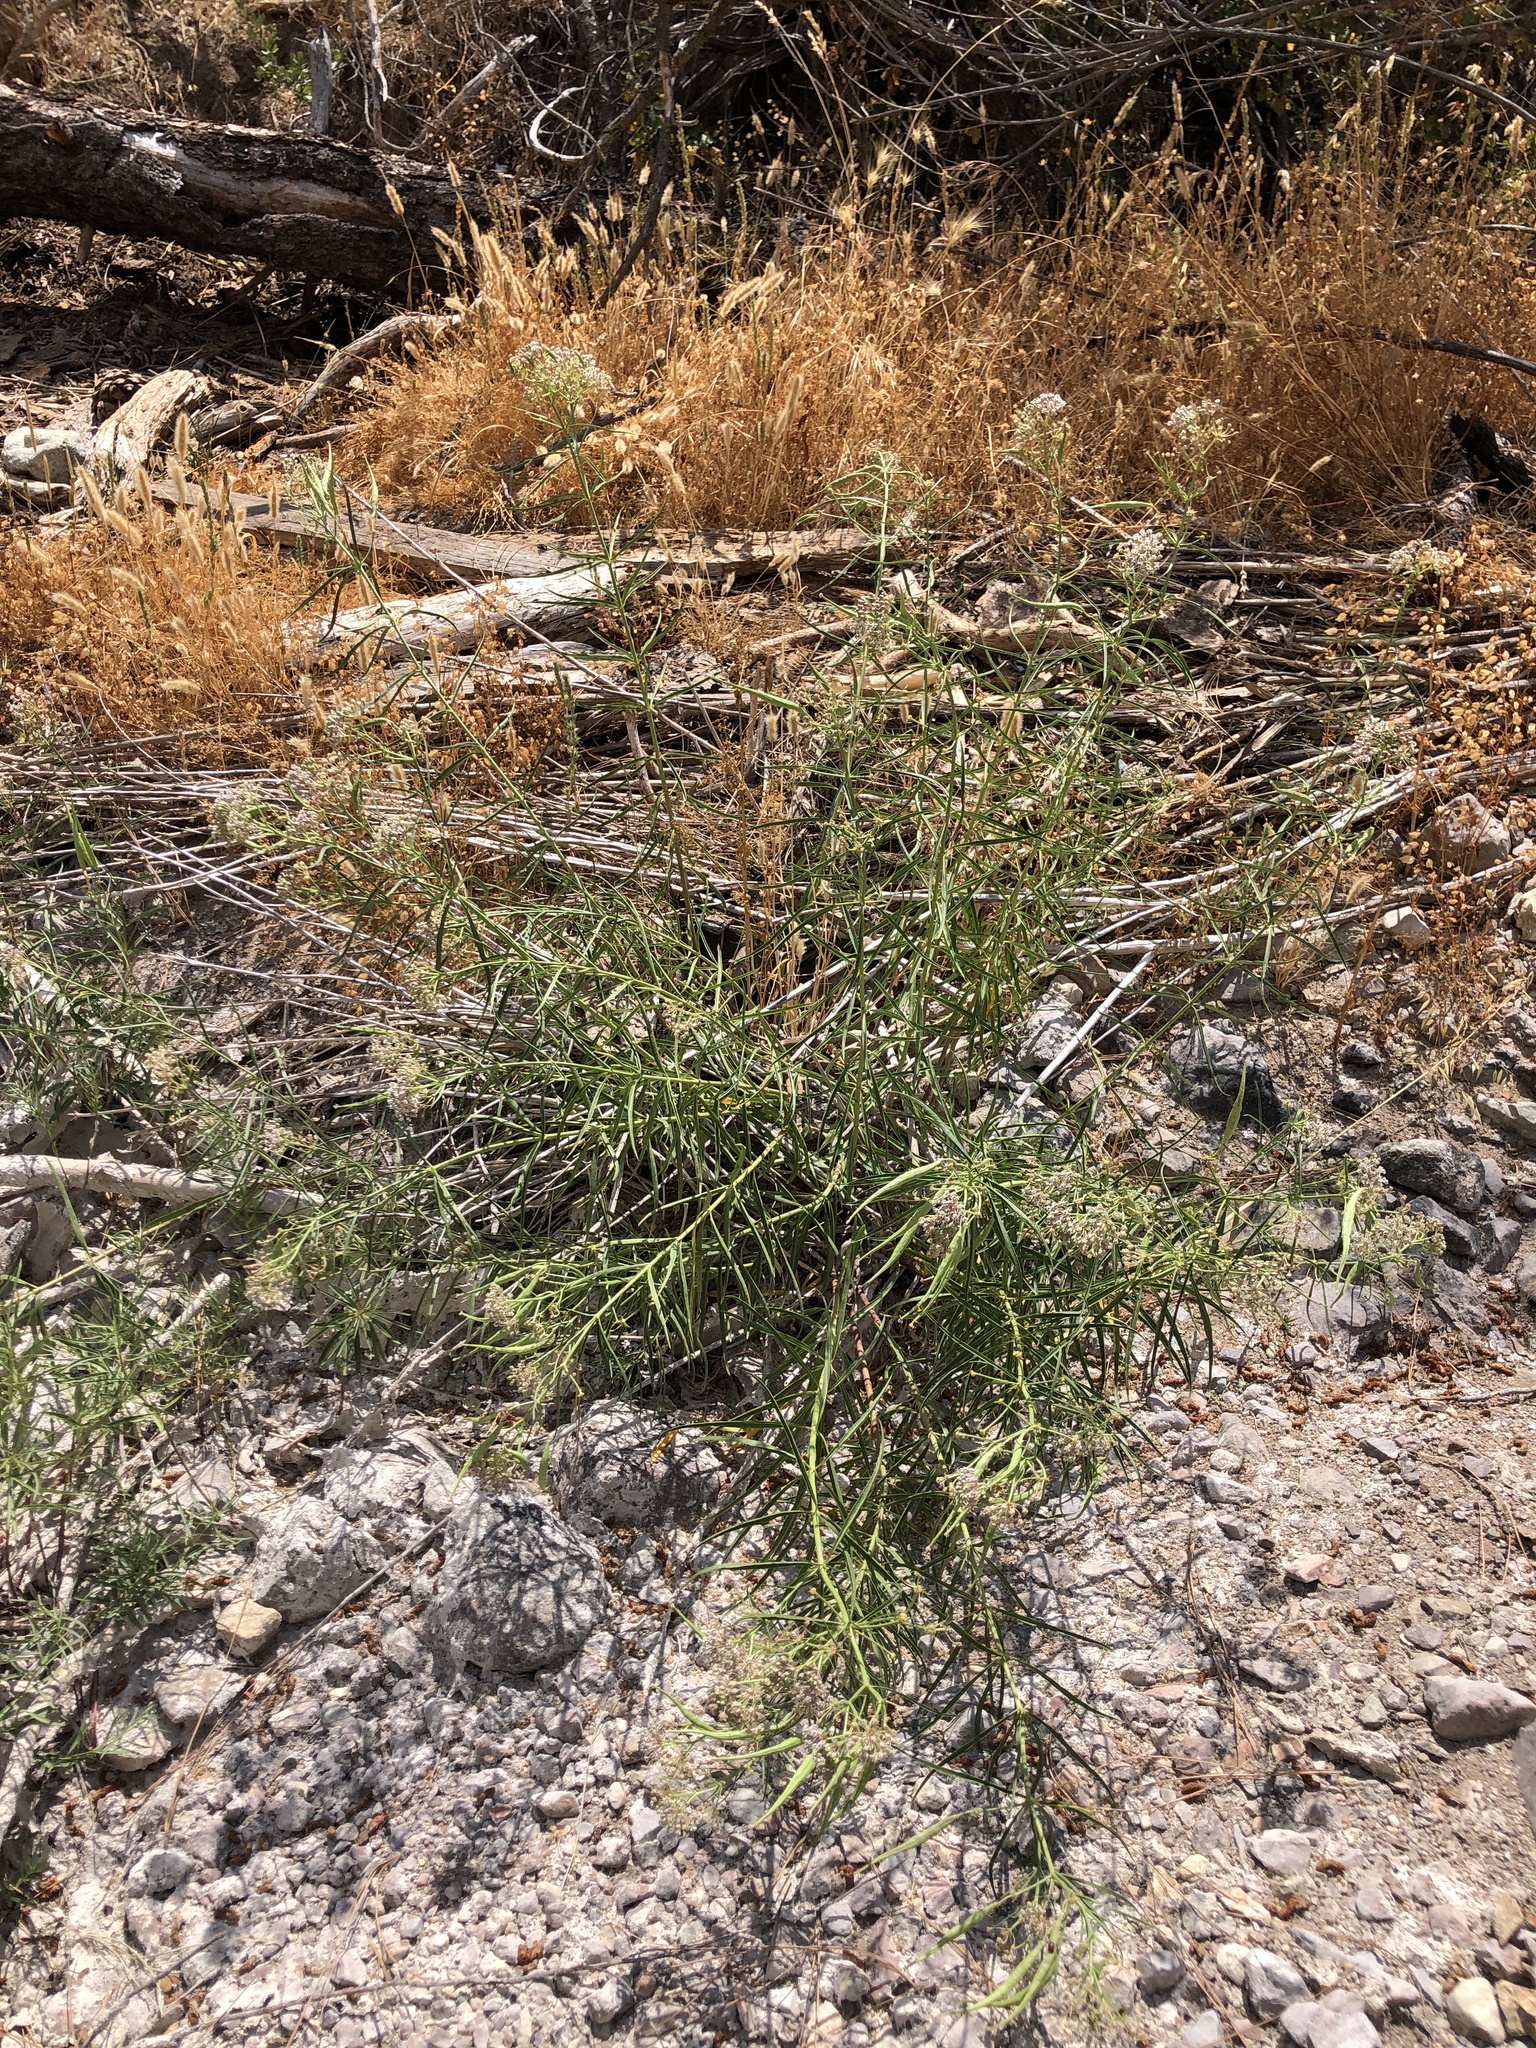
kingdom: Plantae
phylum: Tracheophyta
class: Magnoliopsida
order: Gentianales
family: Apocynaceae
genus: Asclepias
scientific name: Asclepias fascicularis
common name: Mexican milkweed
